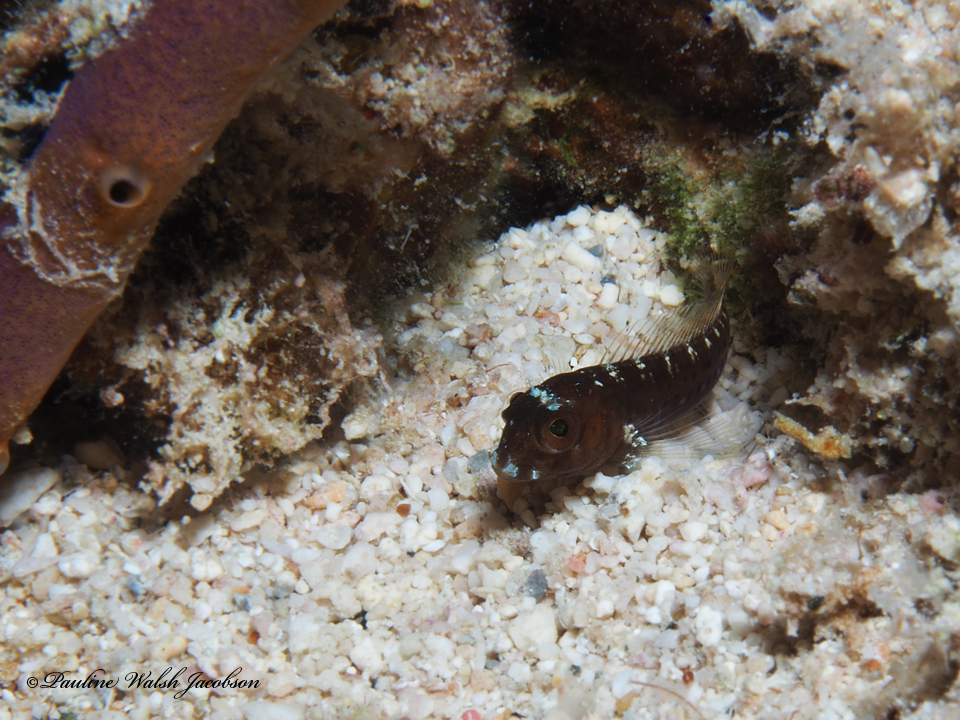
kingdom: Animalia
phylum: Chordata
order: Perciformes
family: Blenniidae
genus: Parablennius
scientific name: Parablennius marmoreus
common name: Seaweed blenny
